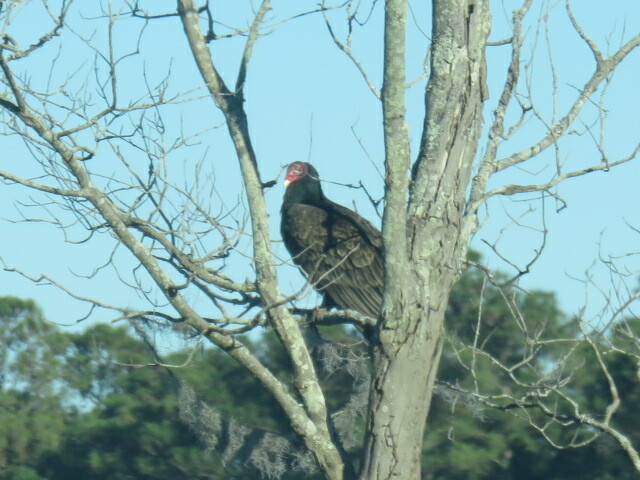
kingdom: Animalia
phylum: Chordata
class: Aves
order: Accipitriformes
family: Cathartidae
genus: Cathartes
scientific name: Cathartes aura
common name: Turkey vulture
